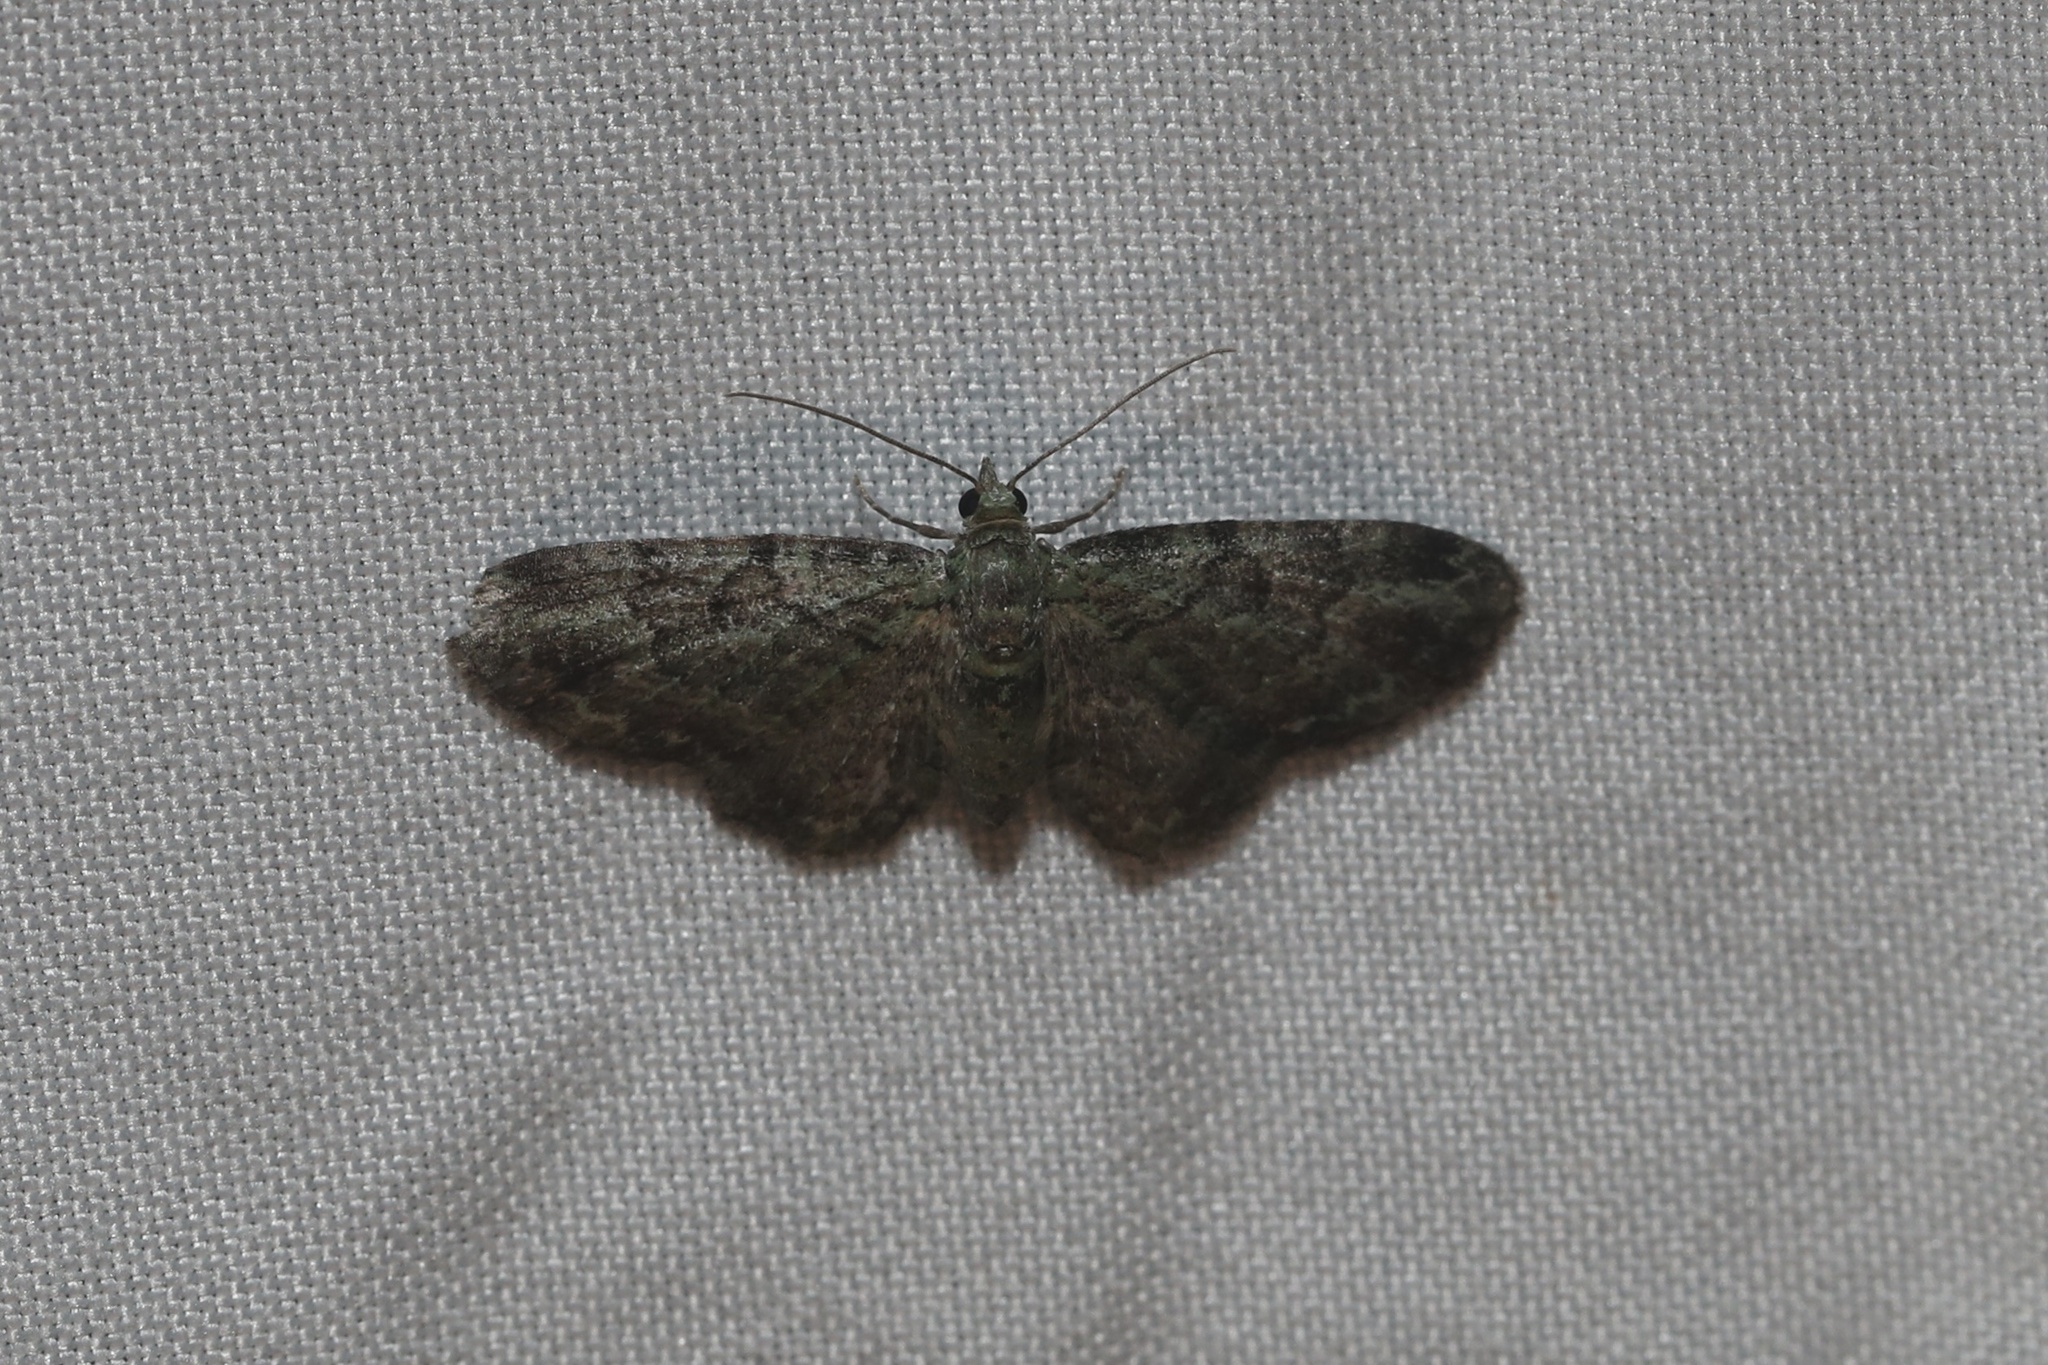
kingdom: Animalia
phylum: Arthropoda
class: Insecta
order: Lepidoptera
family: Geometridae
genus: Pasiphila
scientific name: Pasiphila rectangulata
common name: Green pug
